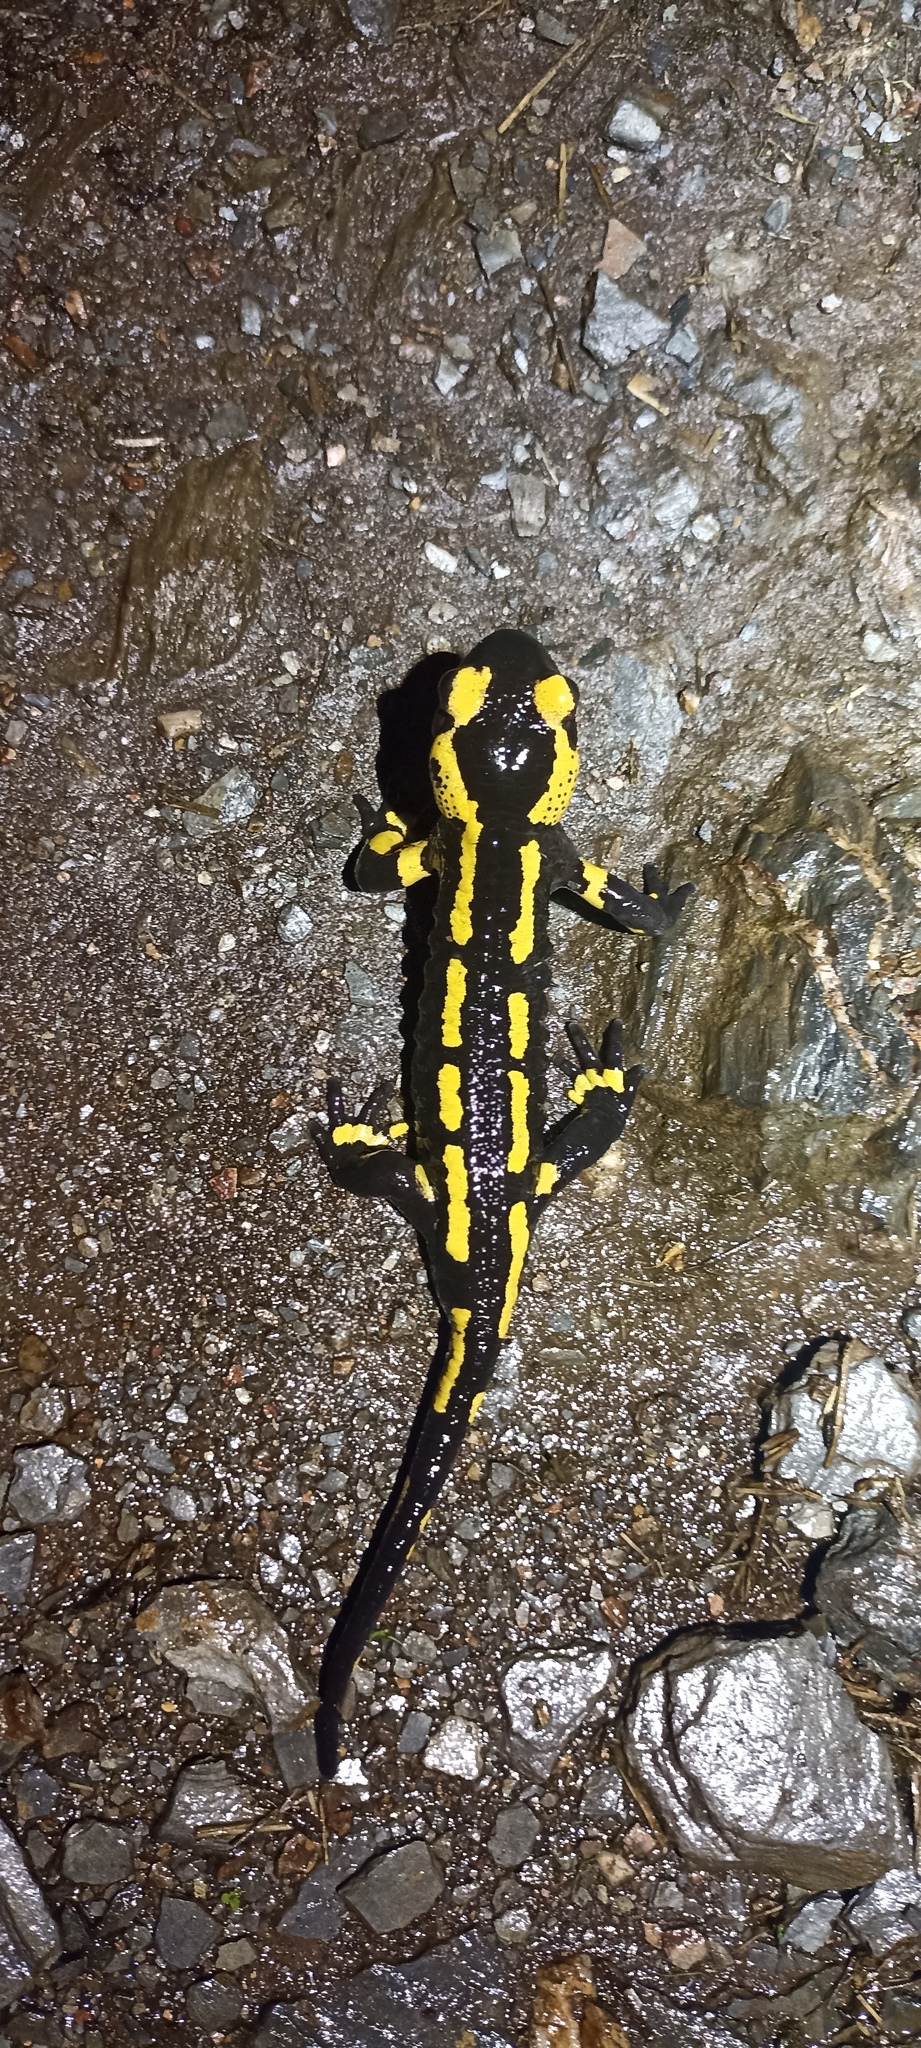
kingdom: Animalia
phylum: Chordata
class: Amphibia
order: Caudata
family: Salamandridae
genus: Salamandra
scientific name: Salamandra salamandra
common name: Fire salamander
